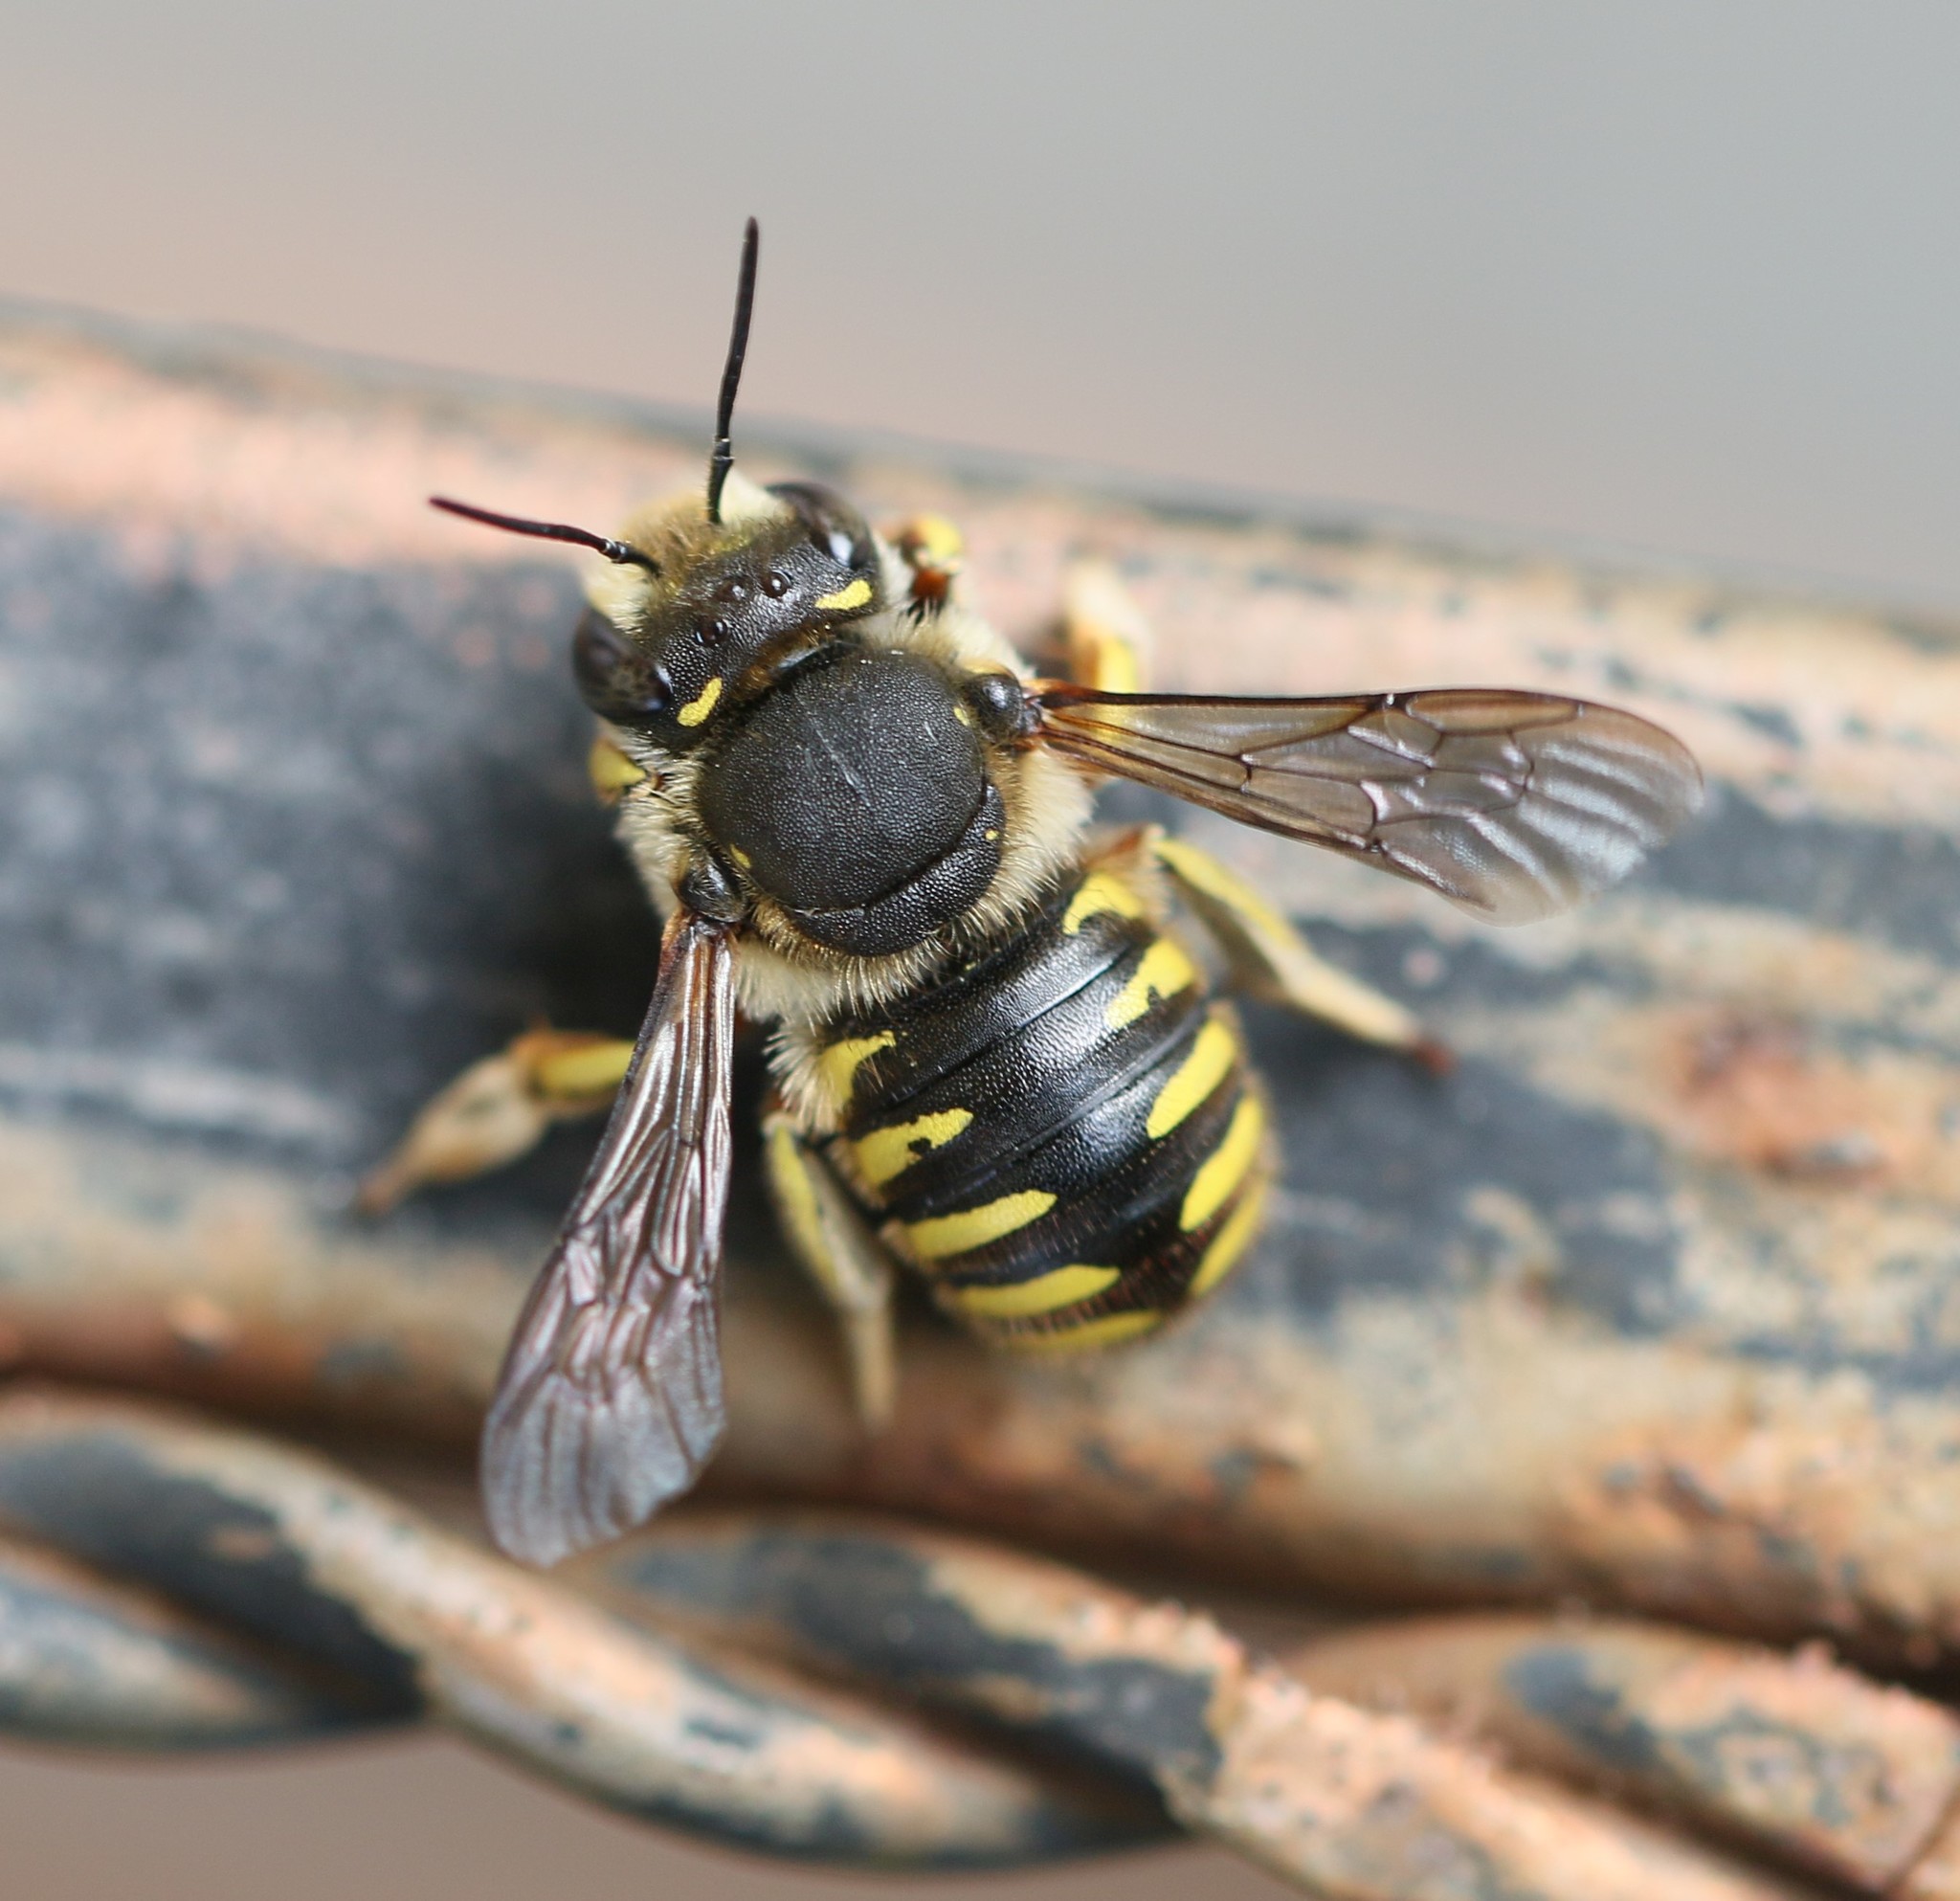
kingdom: Animalia
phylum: Arthropoda
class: Insecta
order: Hymenoptera
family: Megachilidae
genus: Anthidium
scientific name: Anthidium manicatum
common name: Wool carder bee
